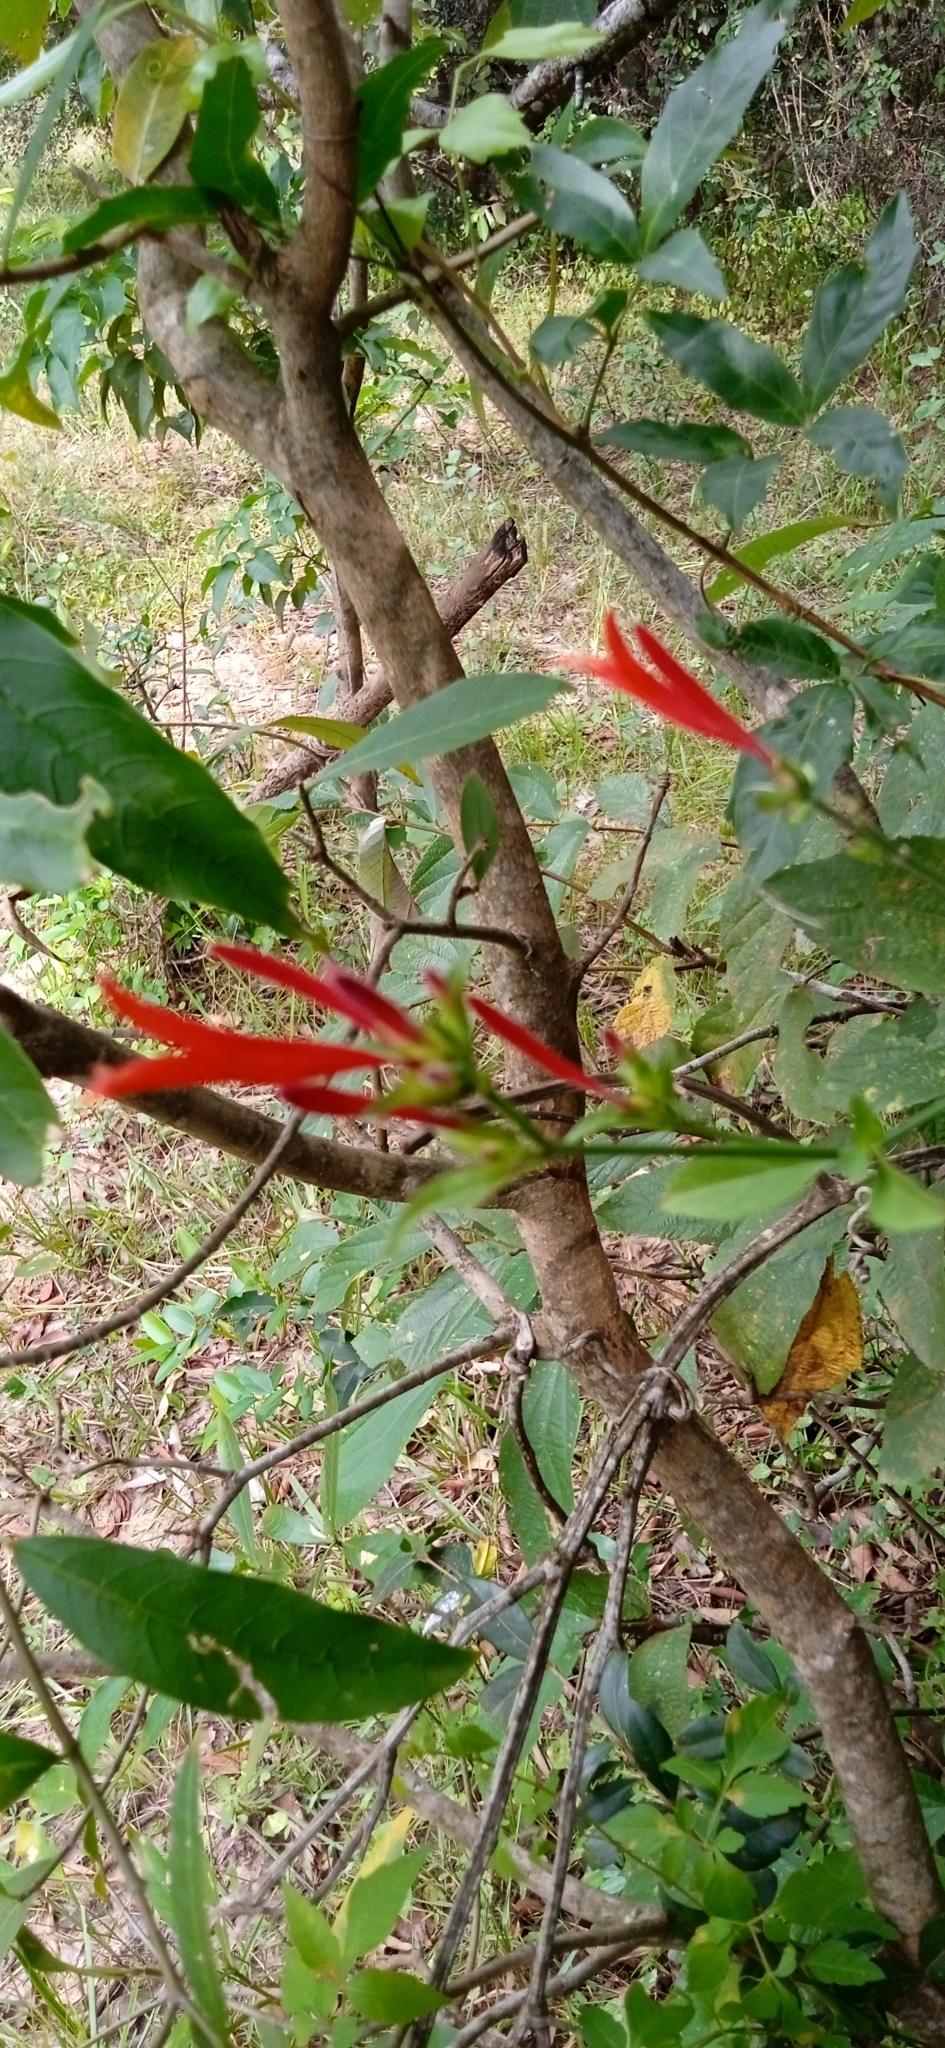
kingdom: Plantae
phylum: Tracheophyta
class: Magnoliopsida
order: Lamiales
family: Acanthaceae
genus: Dicliptera
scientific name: Dicliptera squarrosa
